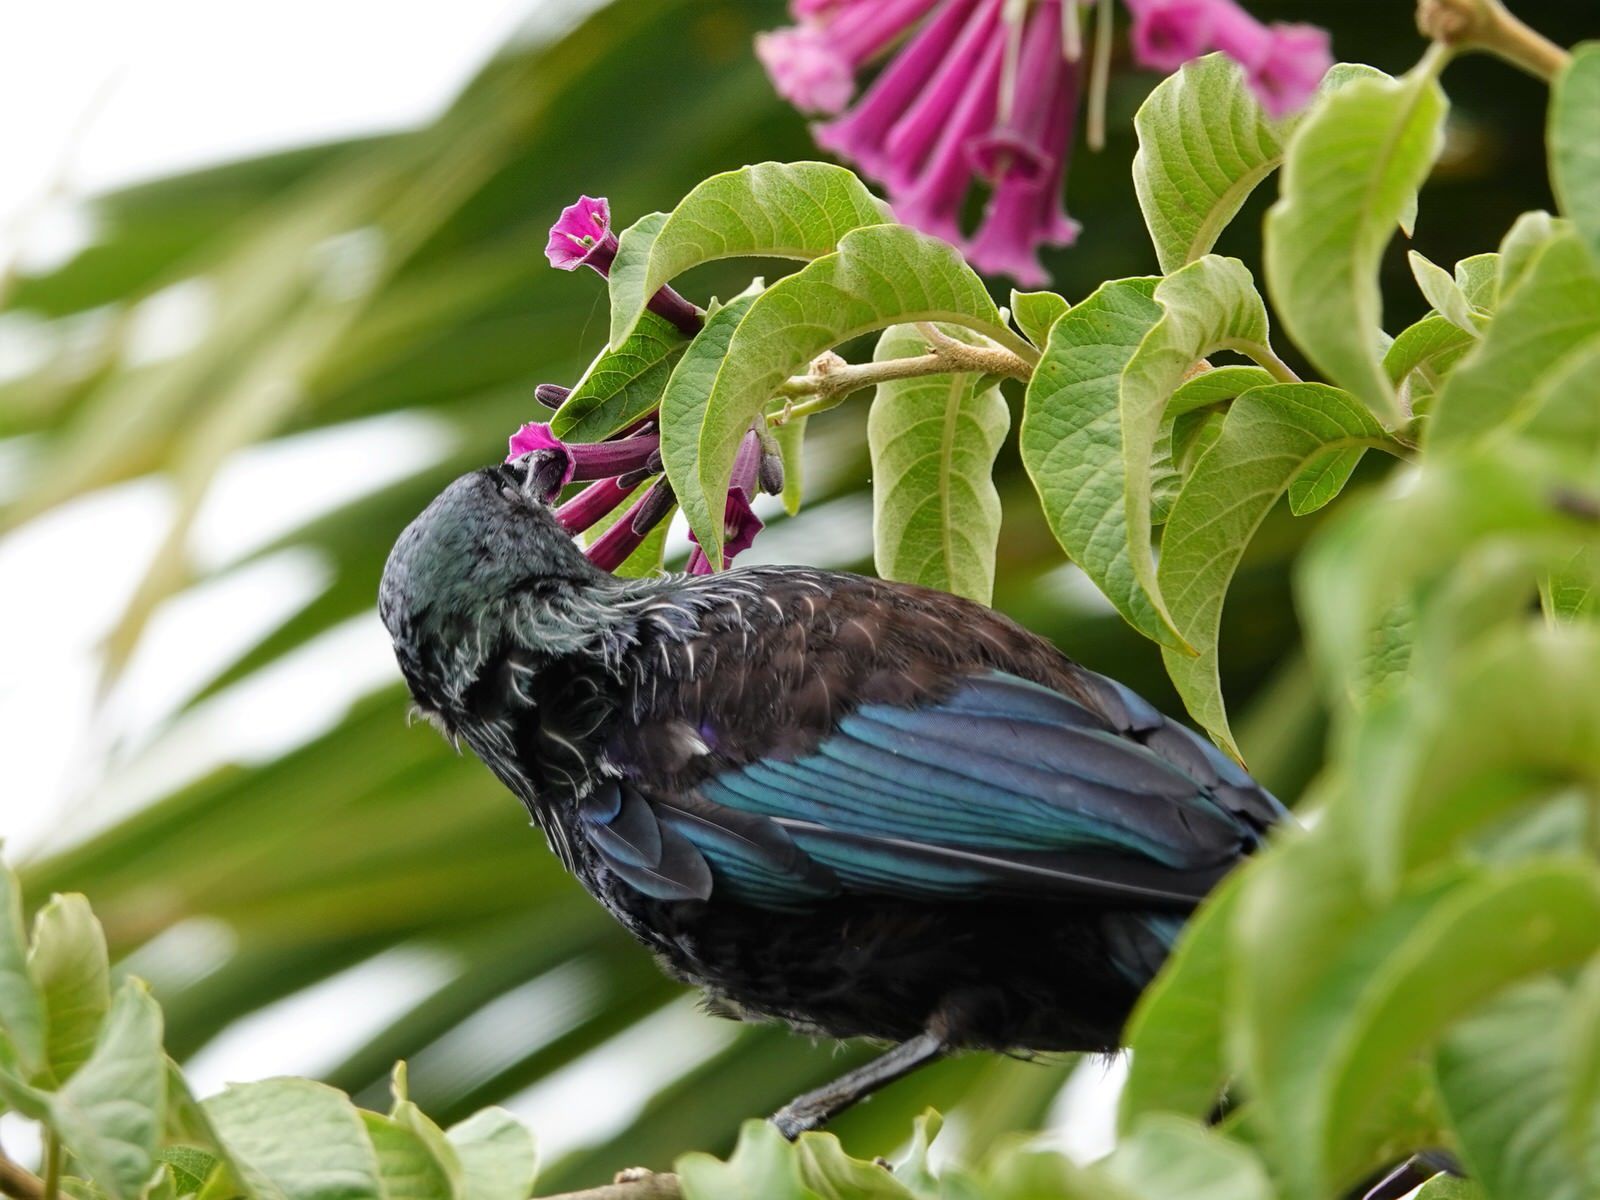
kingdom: Animalia
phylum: Chordata
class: Aves
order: Passeriformes
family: Meliphagidae
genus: Prosthemadera
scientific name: Prosthemadera novaeseelandiae
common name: Tui
